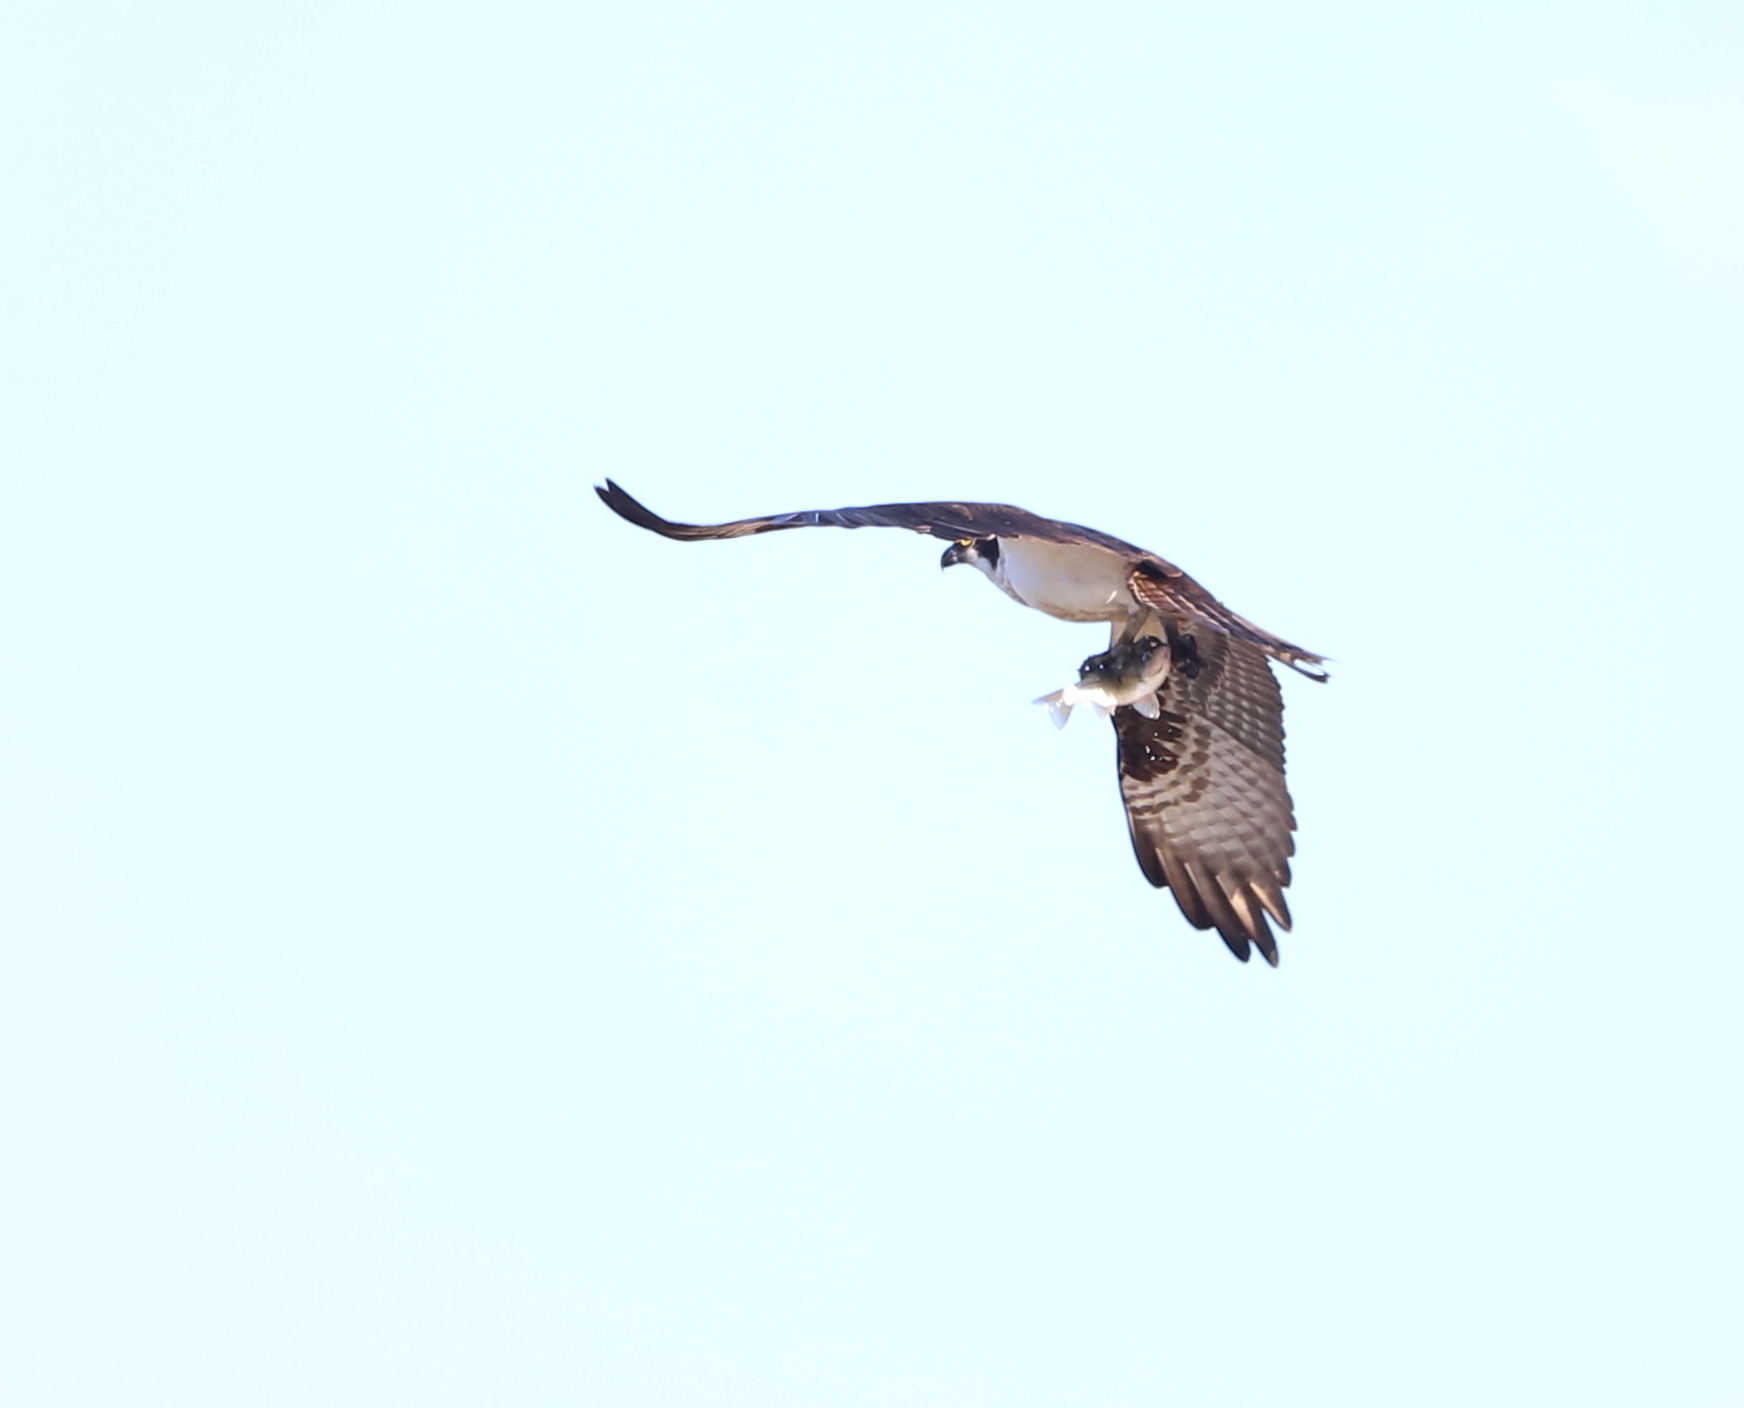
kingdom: Animalia
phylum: Chordata
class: Aves
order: Accipitriformes
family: Pandionidae
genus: Pandion
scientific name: Pandion haliaetus
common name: Osprey
